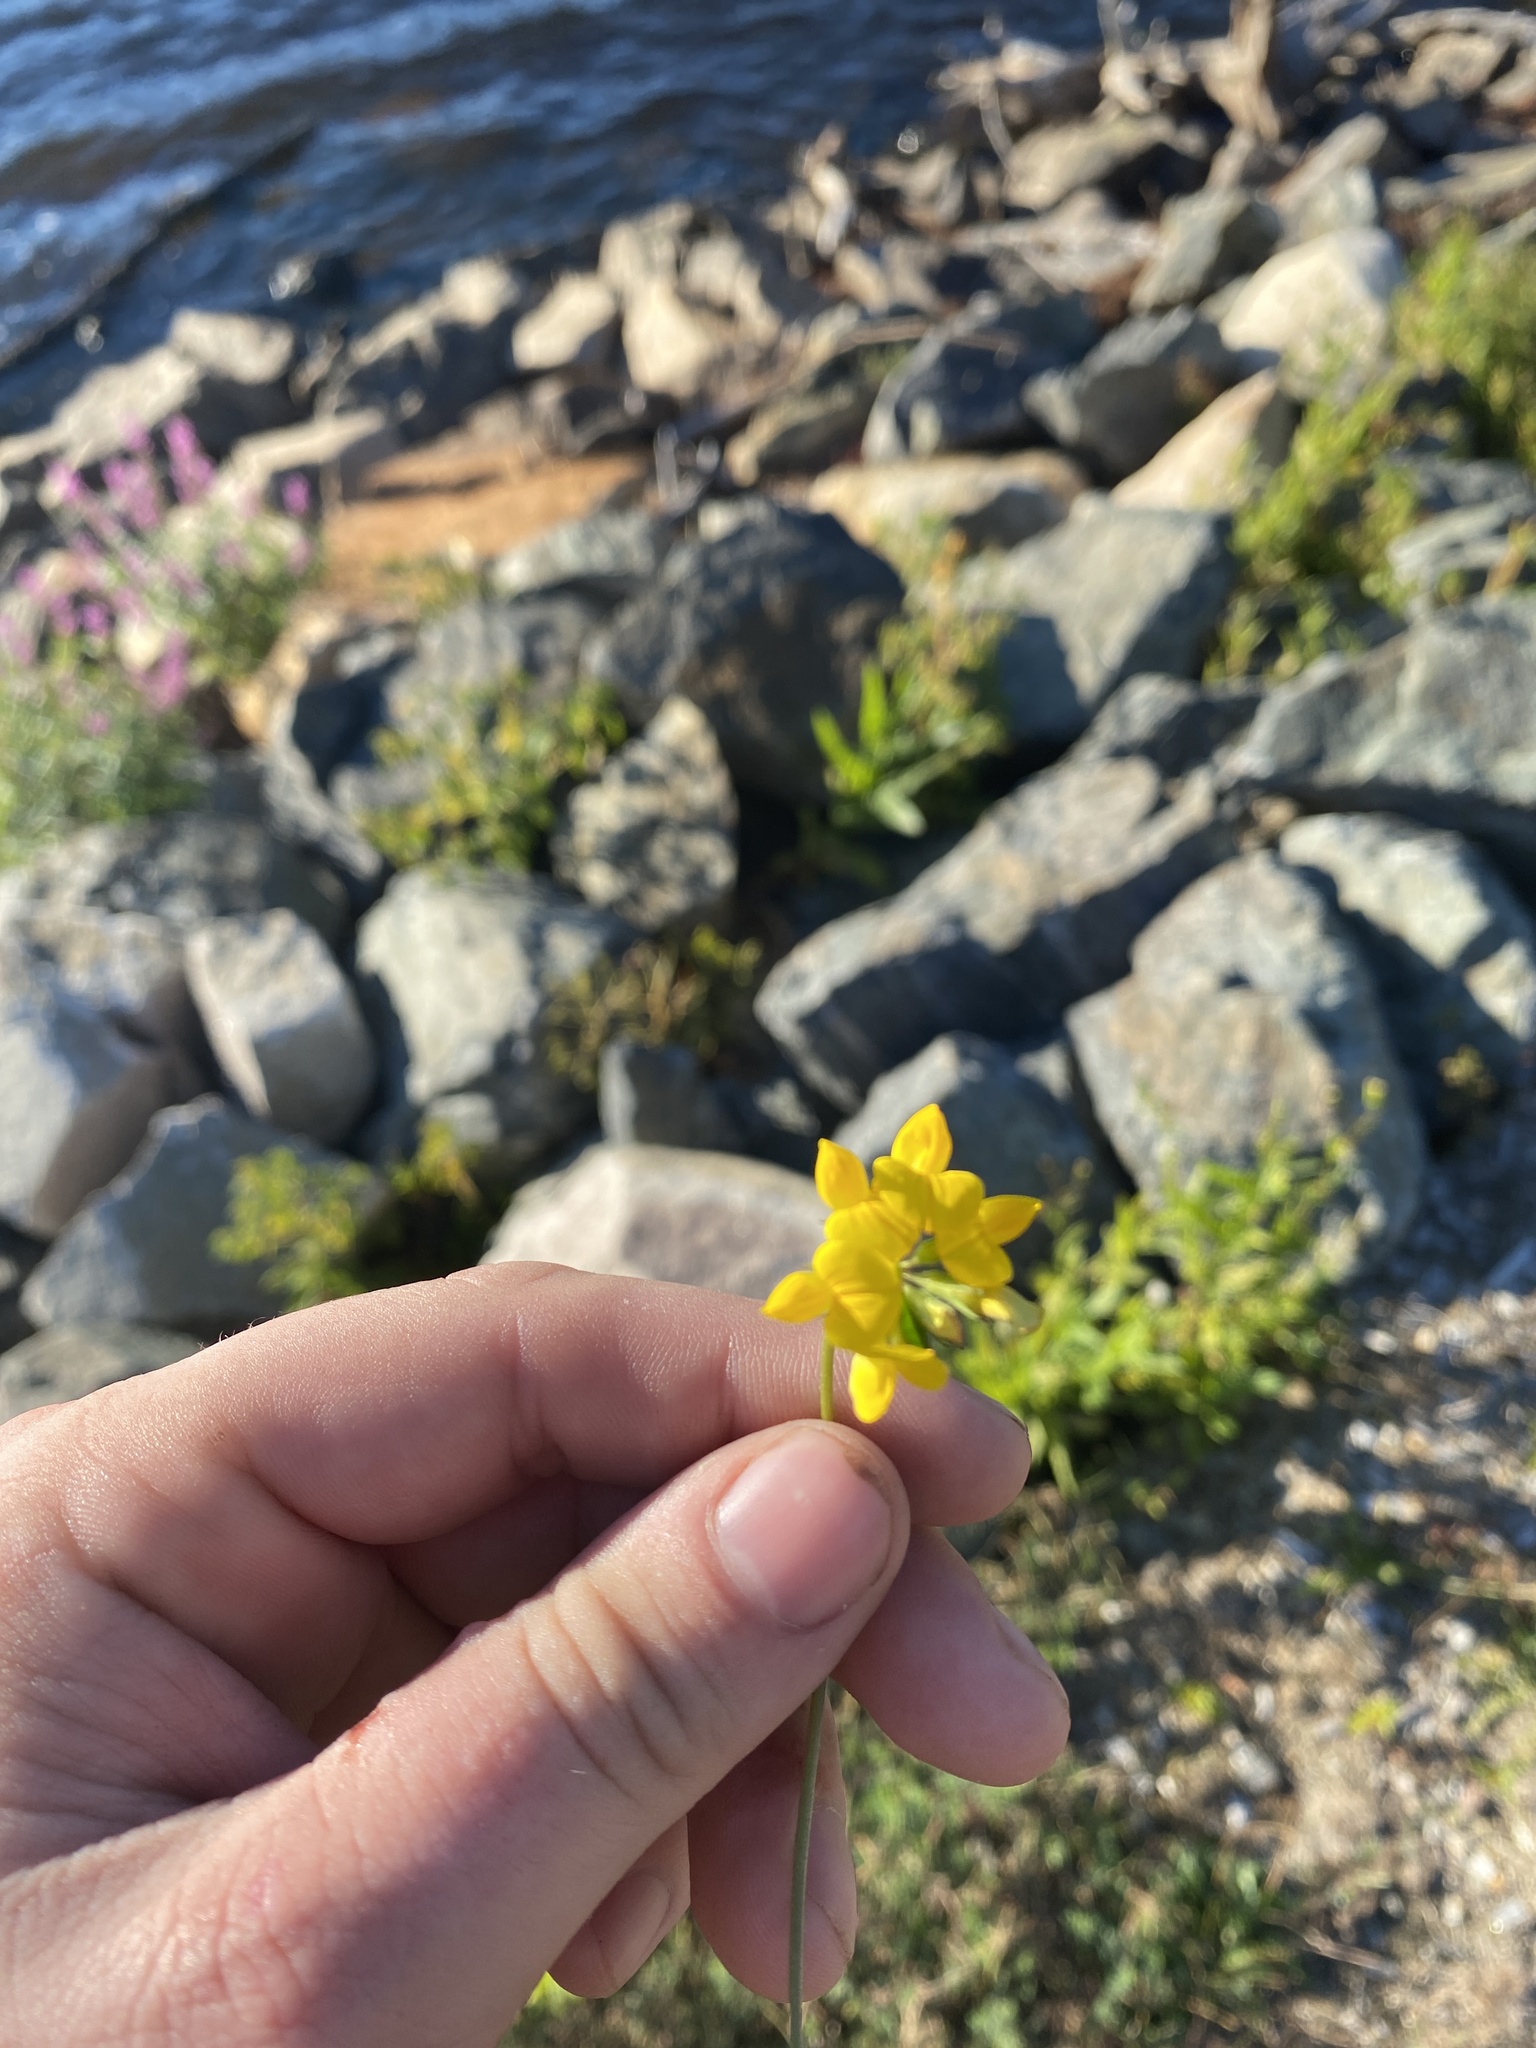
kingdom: Plantae
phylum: Tracheophyta
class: Magnoliopsida
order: Fabales
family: Fabaceae
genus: Lotus
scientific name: Lotus corniculatus
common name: Common bird's-foot-trefoil
